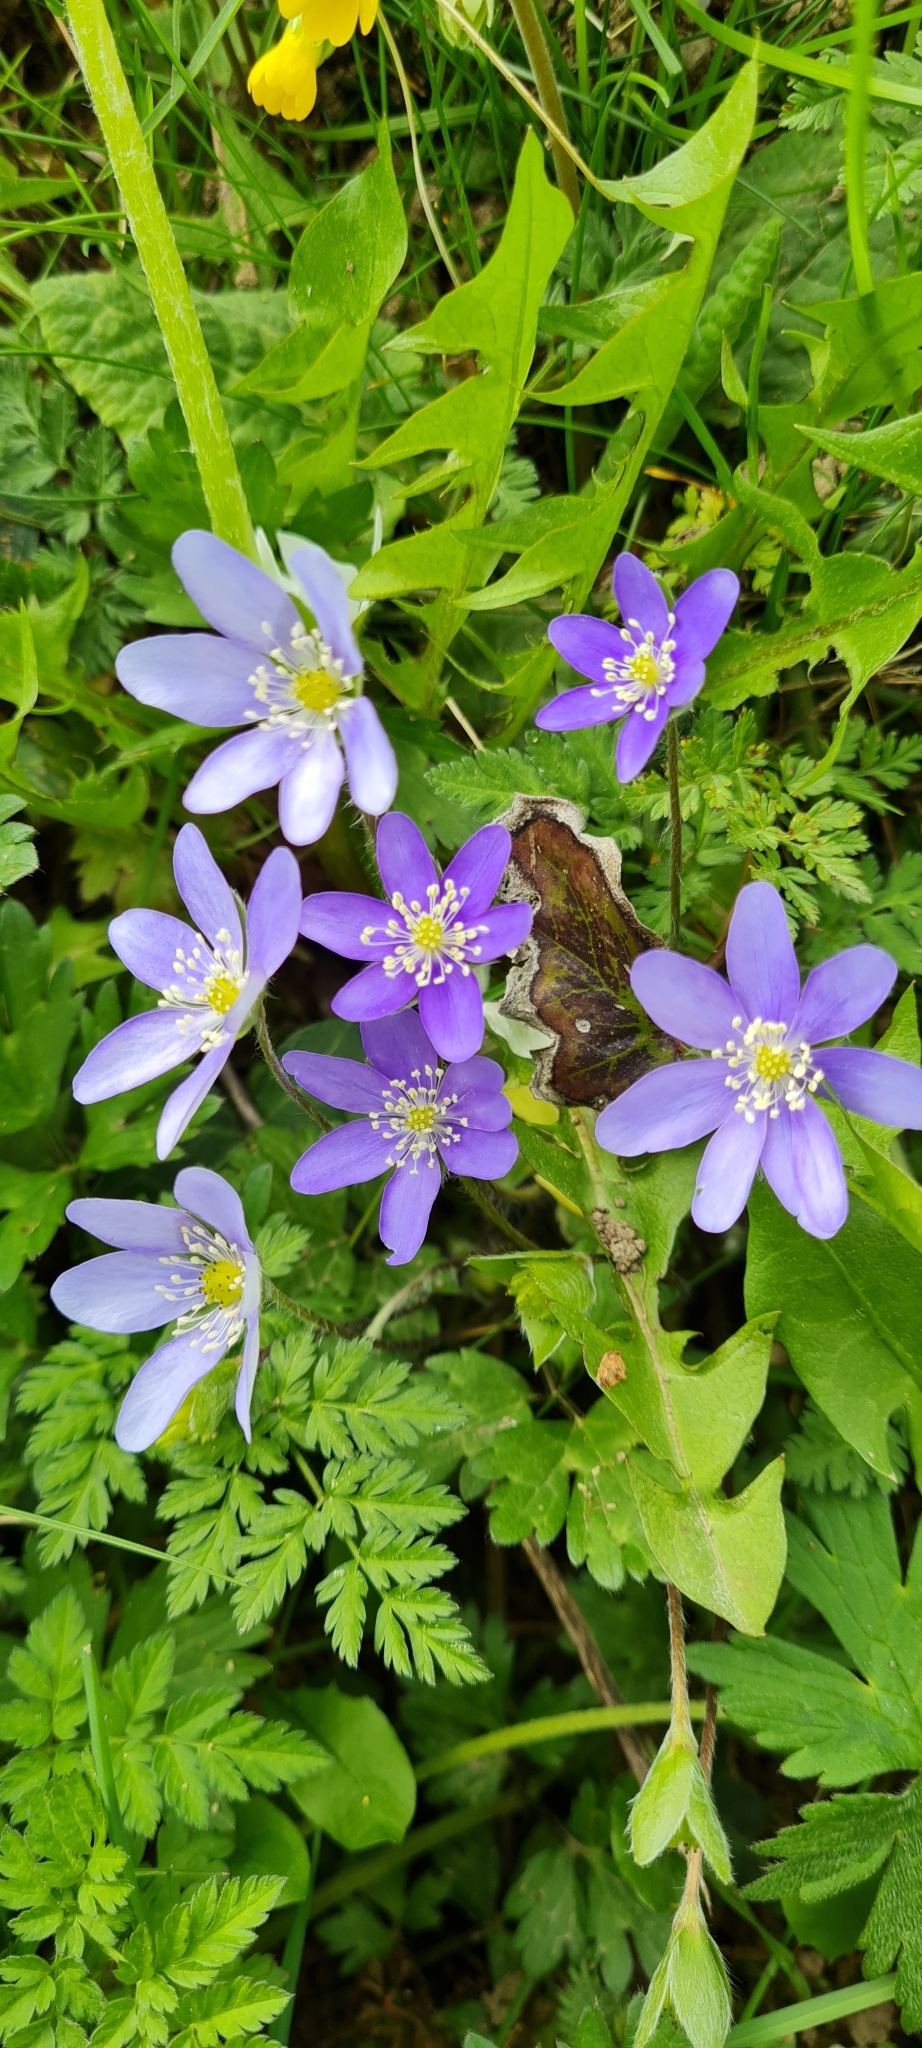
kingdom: Plantae
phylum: Tracheophyta
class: Magnoliopsida
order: Ranunculales
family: Ranunculaceae
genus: Hepatica
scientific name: Hepatica nobilis
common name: Liverleaf
